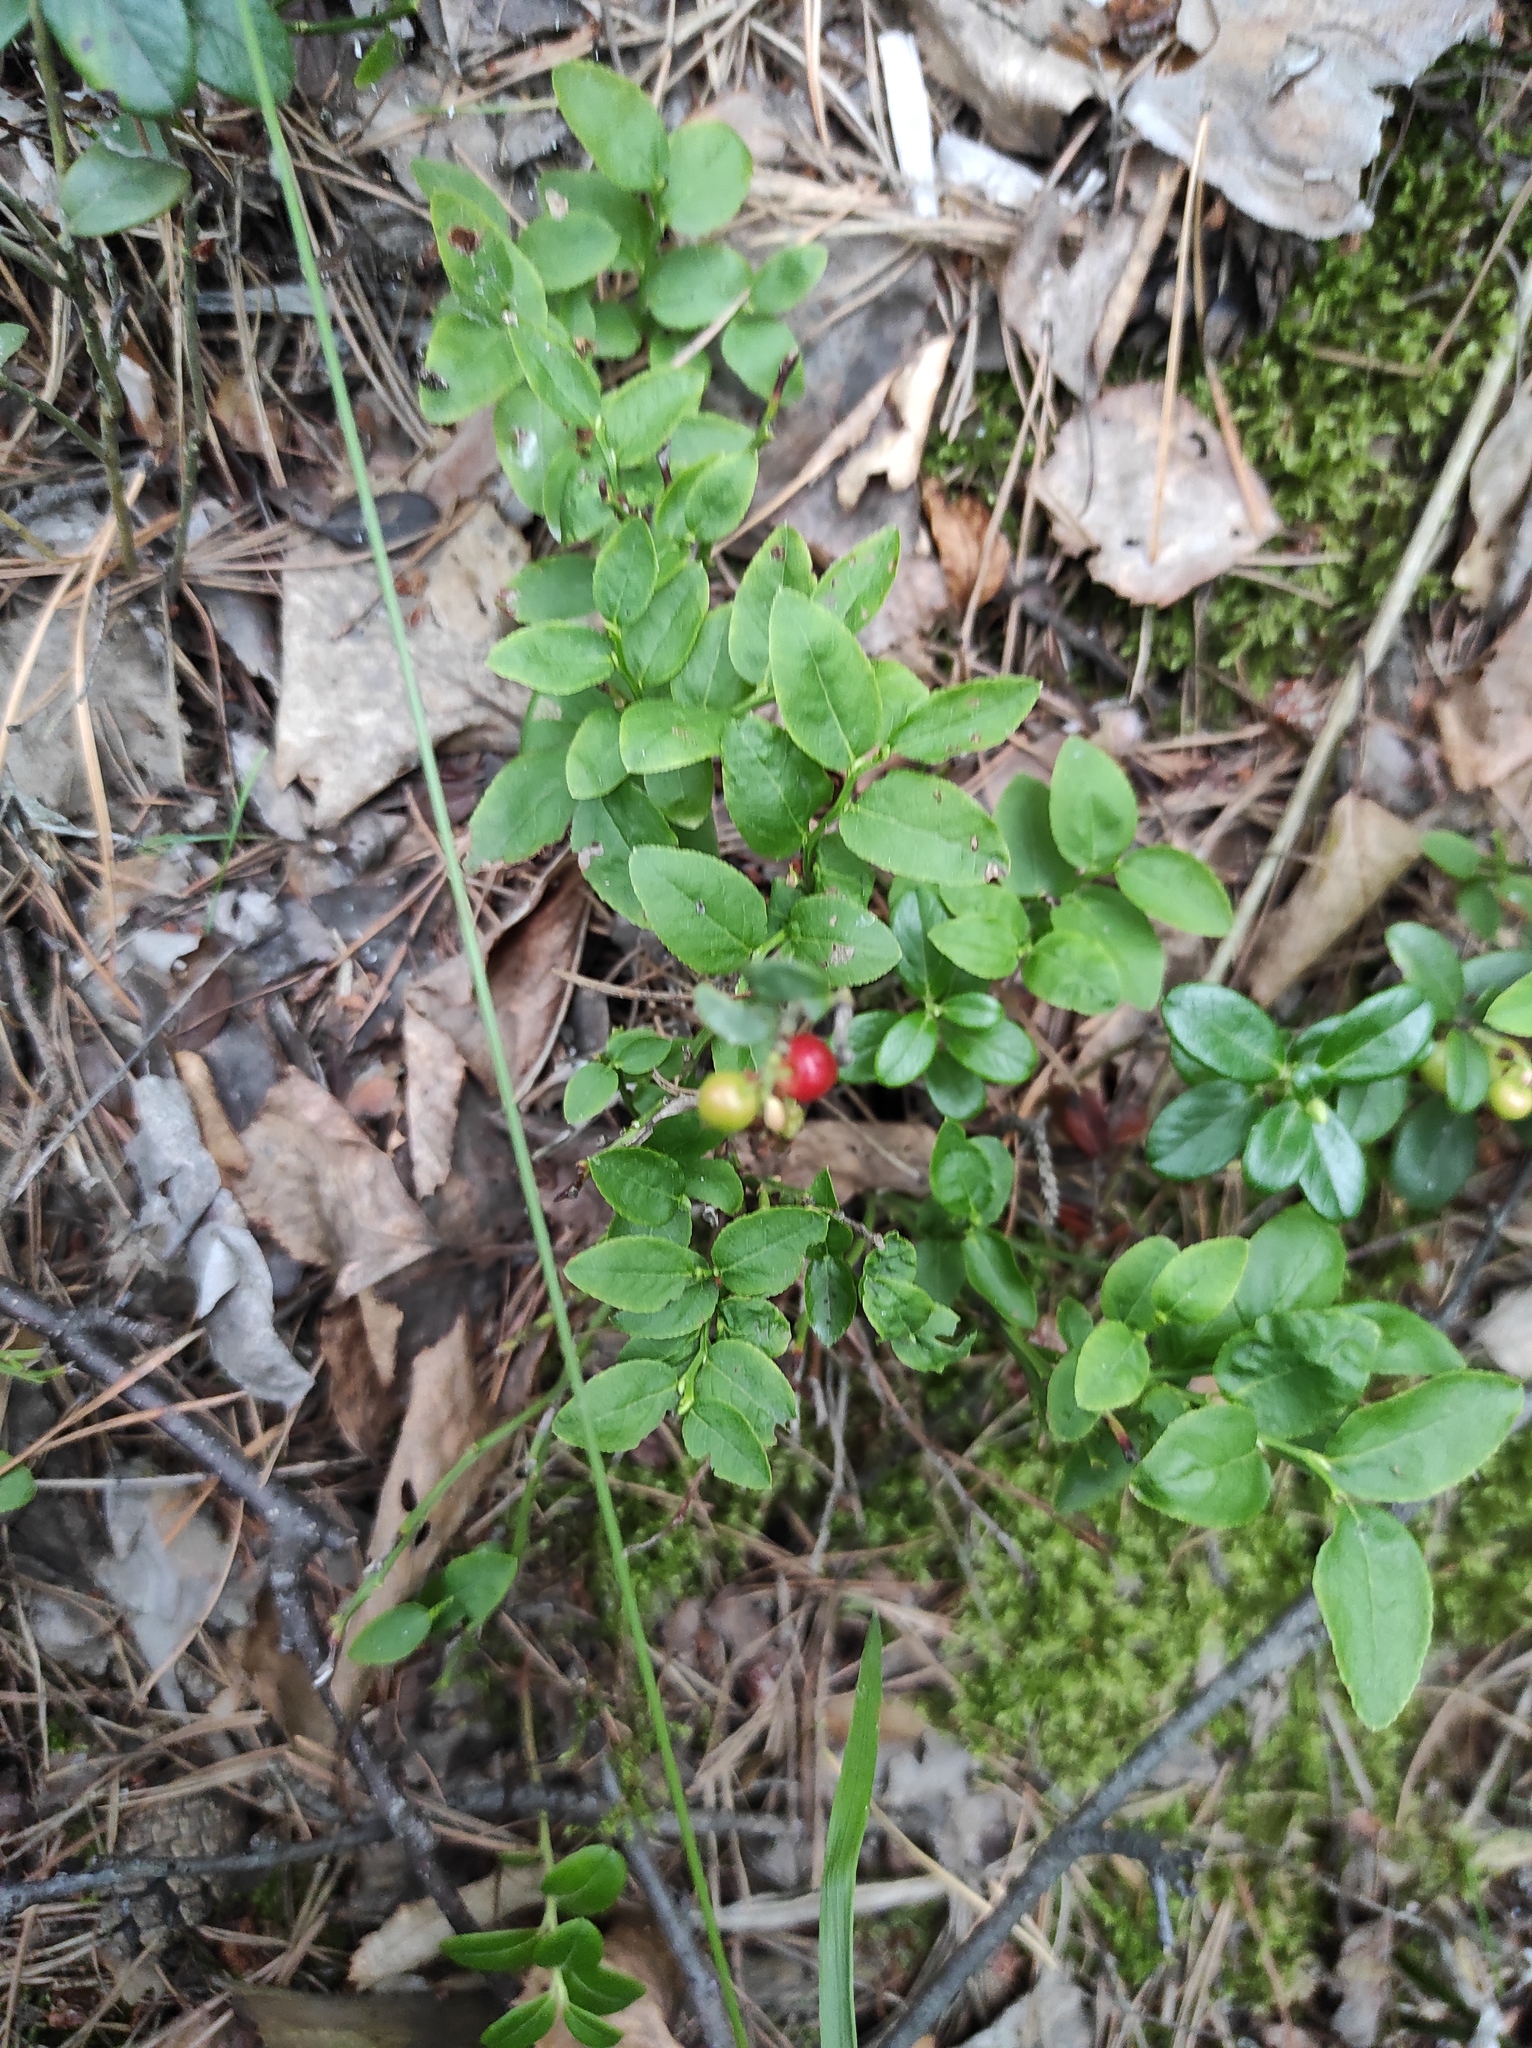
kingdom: Plantae
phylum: Tracheophyta
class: Magnoliopsida
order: Ericales
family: Ericaceae
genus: Vaccinium
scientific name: Vaccinium vitis-idaea
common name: Cowberry
